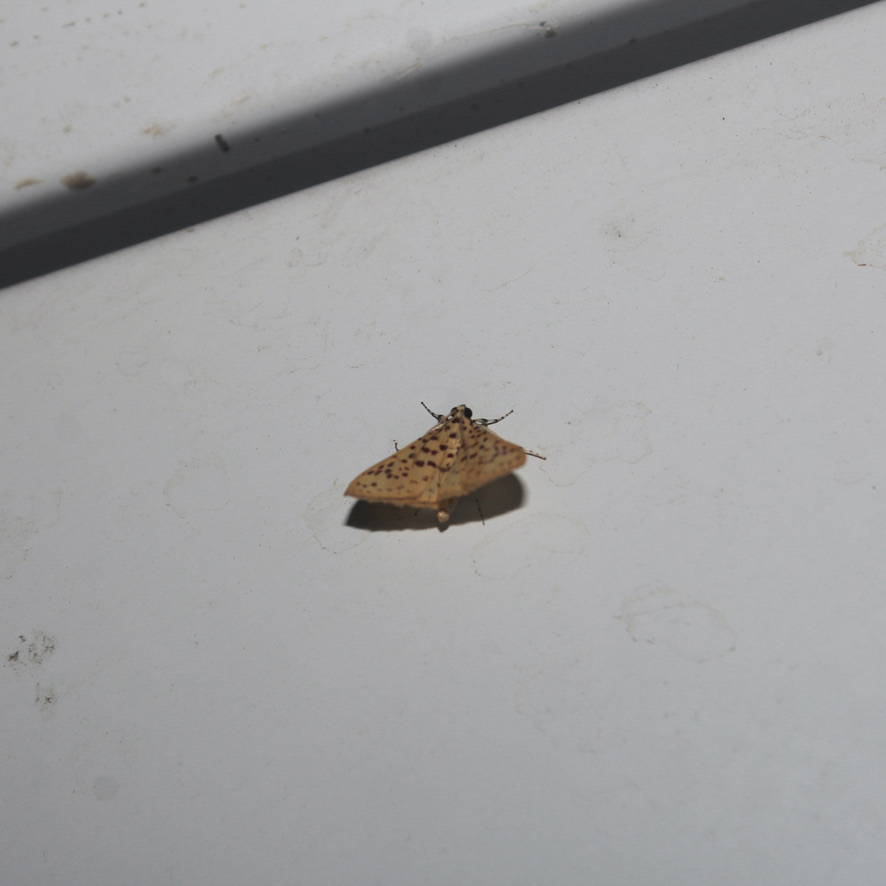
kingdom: Animalia
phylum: Arthropoda
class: Insecta
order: Lepidoptera
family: Crambidae
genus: Polygrammodes
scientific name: Polygrammodes elevata
